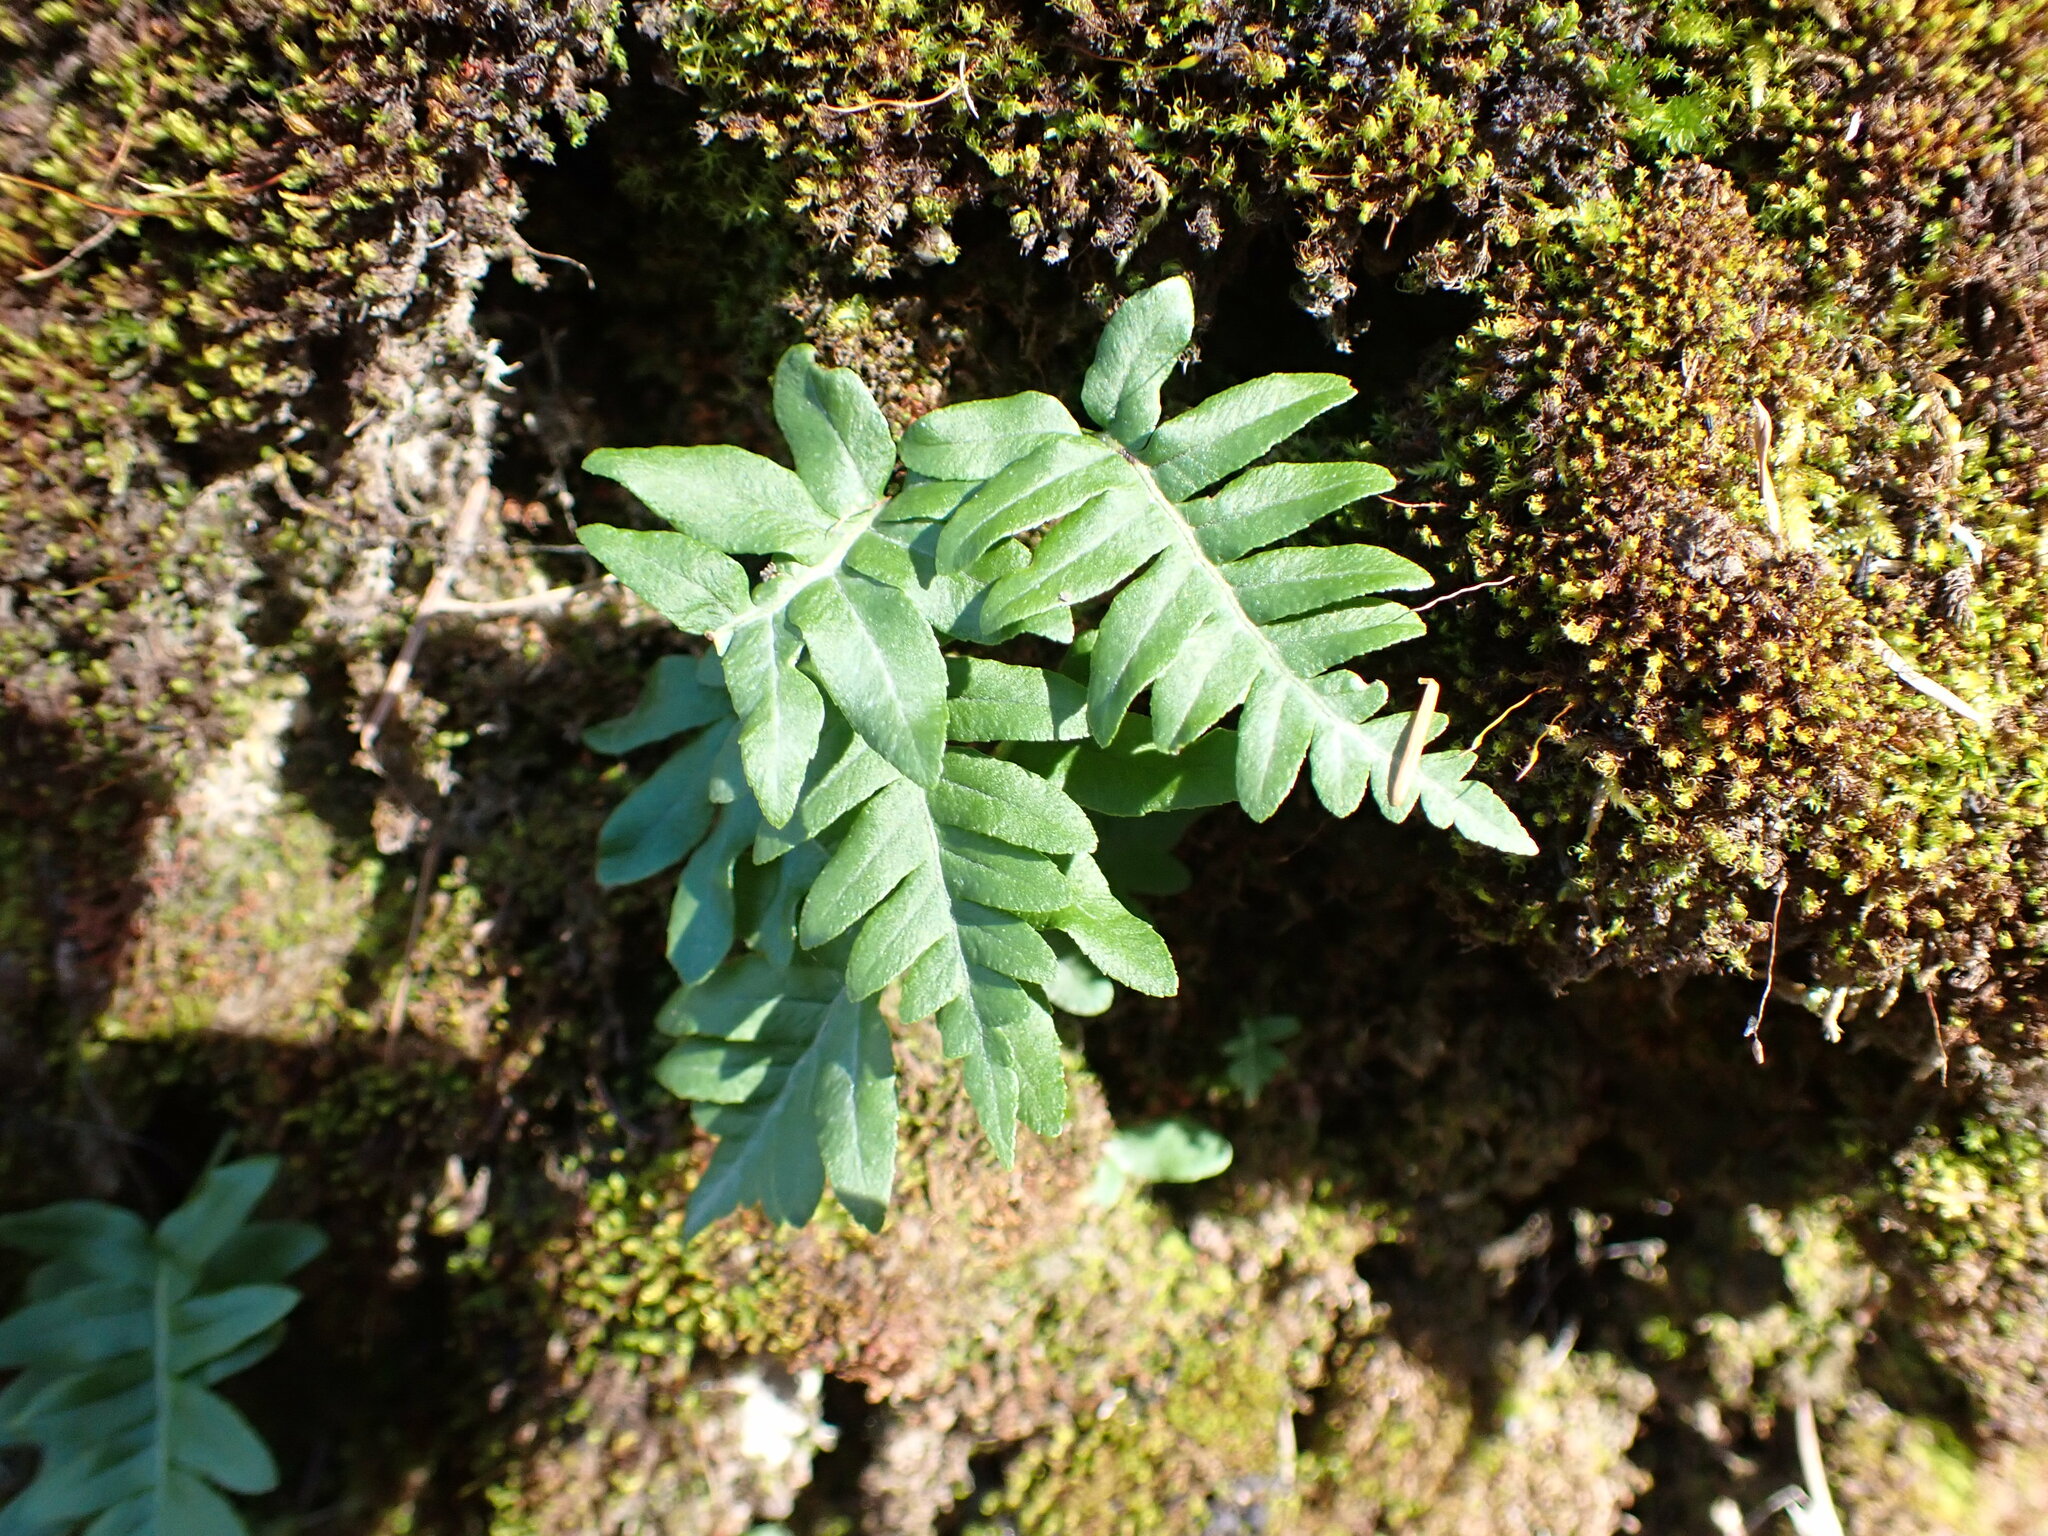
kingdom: Plantae
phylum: Tracheophyta
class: Polypodiopsida
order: Polypodiales
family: Polypodiaceae
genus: Polypodium
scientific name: Polypodium glycyrrhiza
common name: Licorice fern
